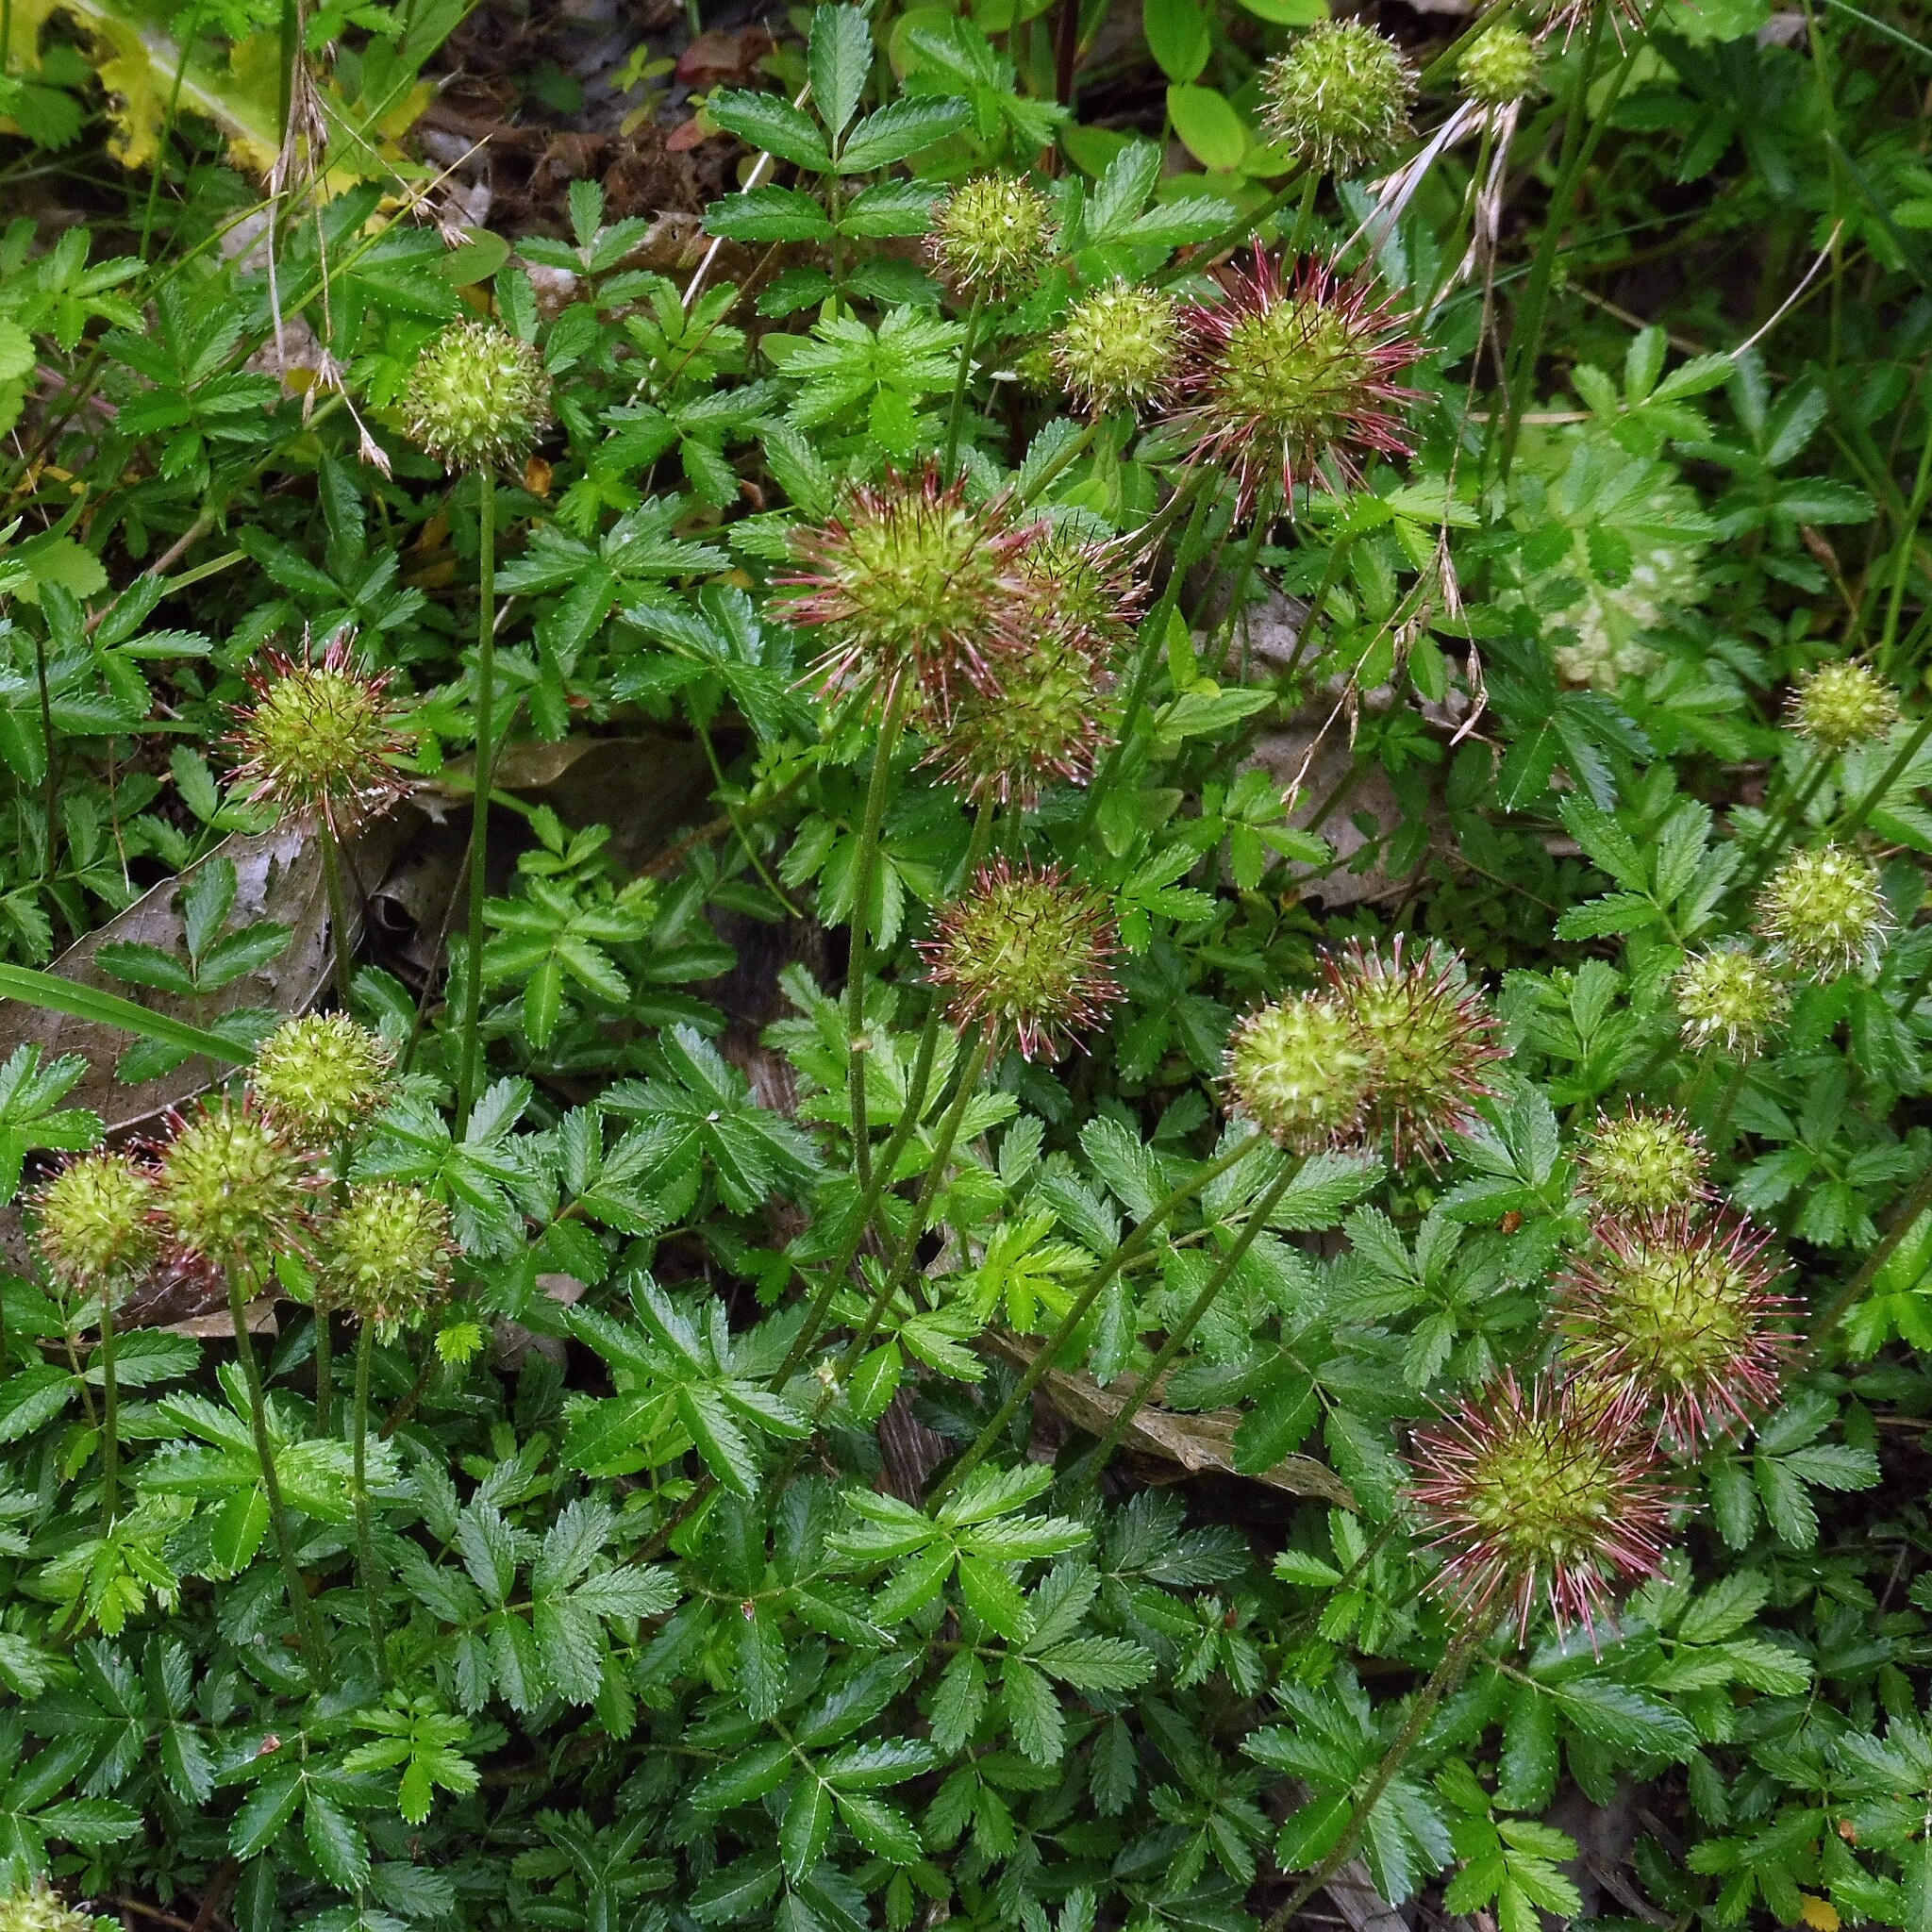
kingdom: Plantae
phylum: Tracheophyta
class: Magnoliopsida
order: Rosales
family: Rosaceae
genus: Acaena
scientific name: Acaena novae-zelandiae
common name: Pirri-pirri-bur
